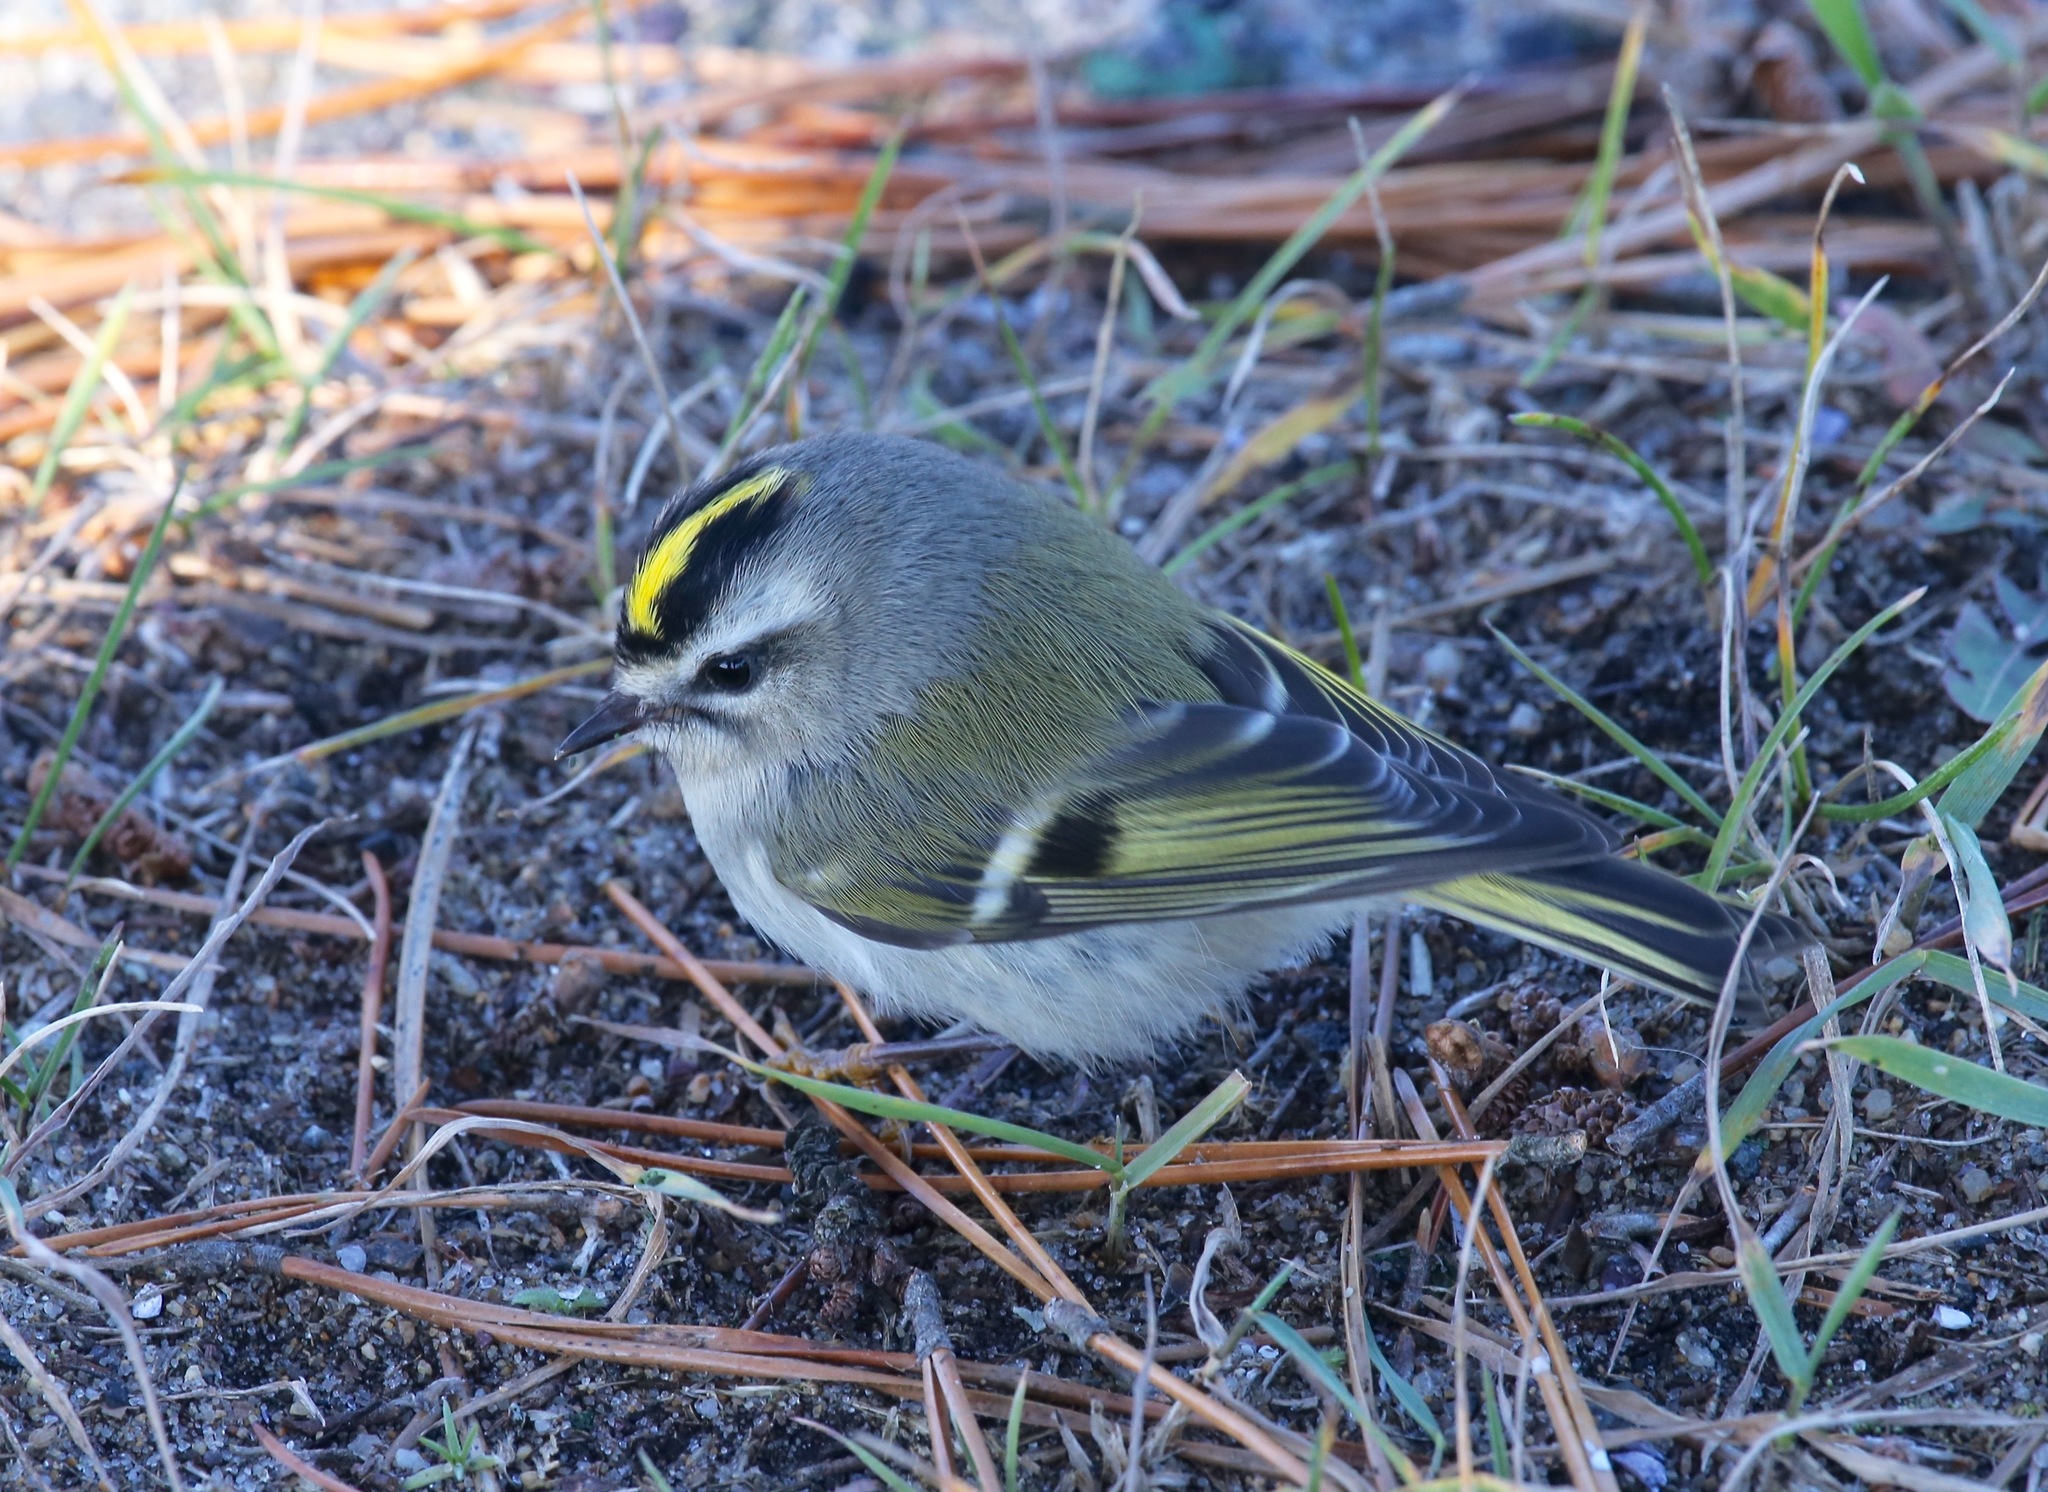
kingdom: Animalia
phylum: Chordata
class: Aves
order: Passeriformes
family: Regulidae
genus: Regulus
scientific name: Regulus satrapa
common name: Golden-crowned kinglet
